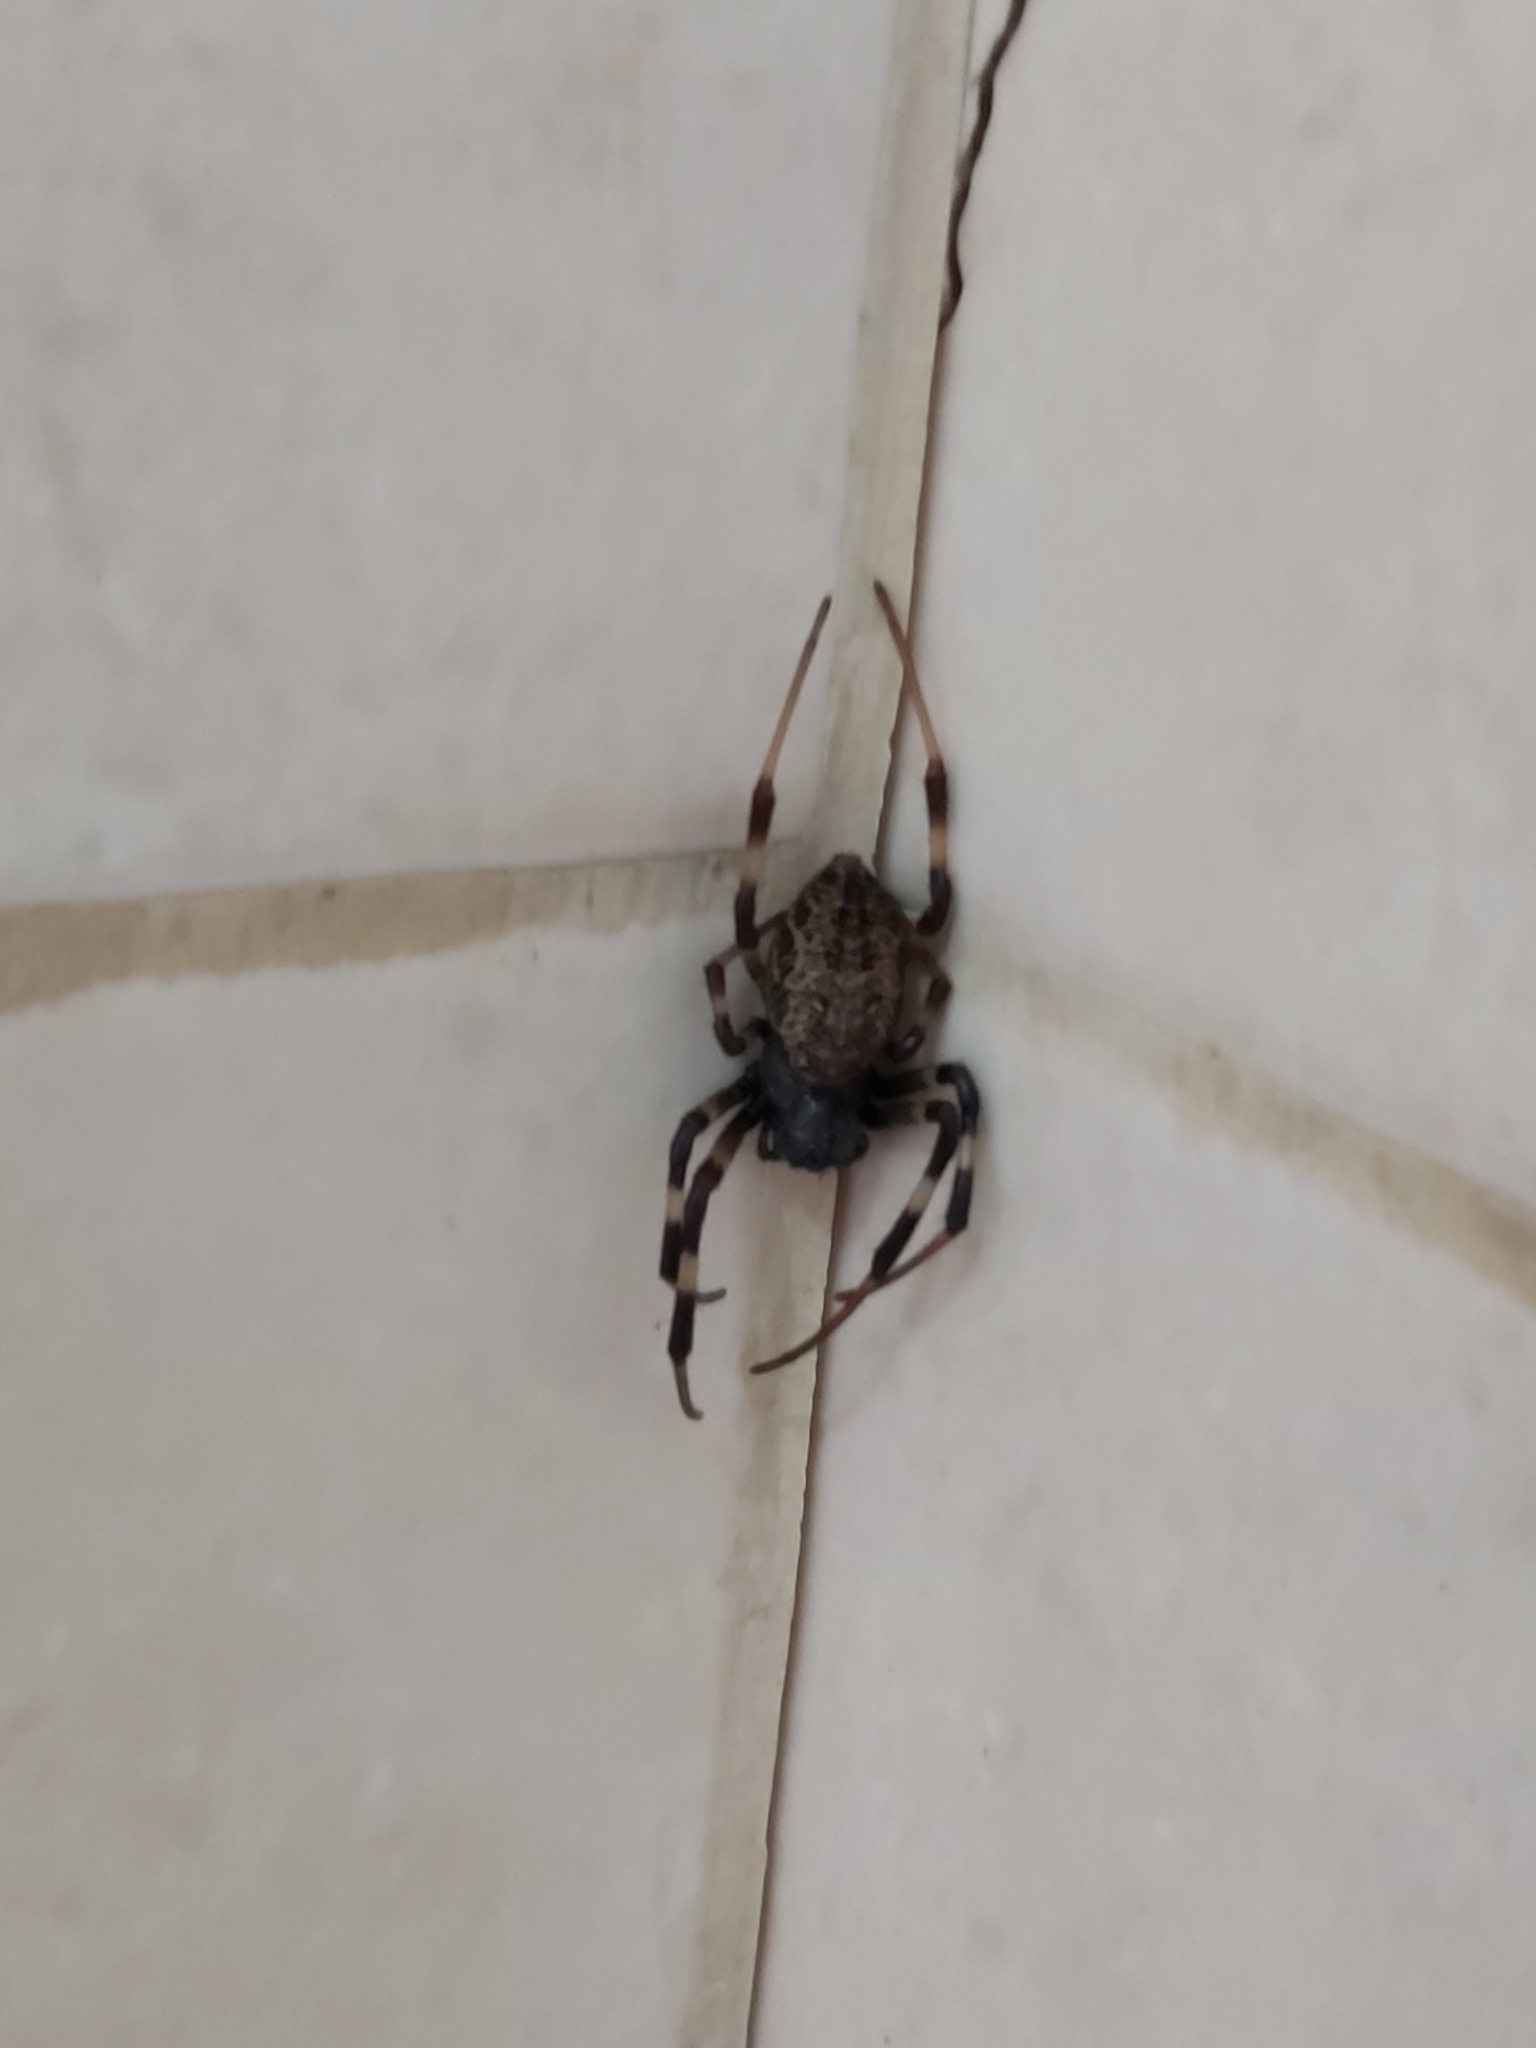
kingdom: Animalia
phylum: Arthropoda
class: Arachnida
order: Araneae
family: Araneidae
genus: Nephilengys
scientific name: Nephilengys malabarensis
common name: Asian hermit spider
